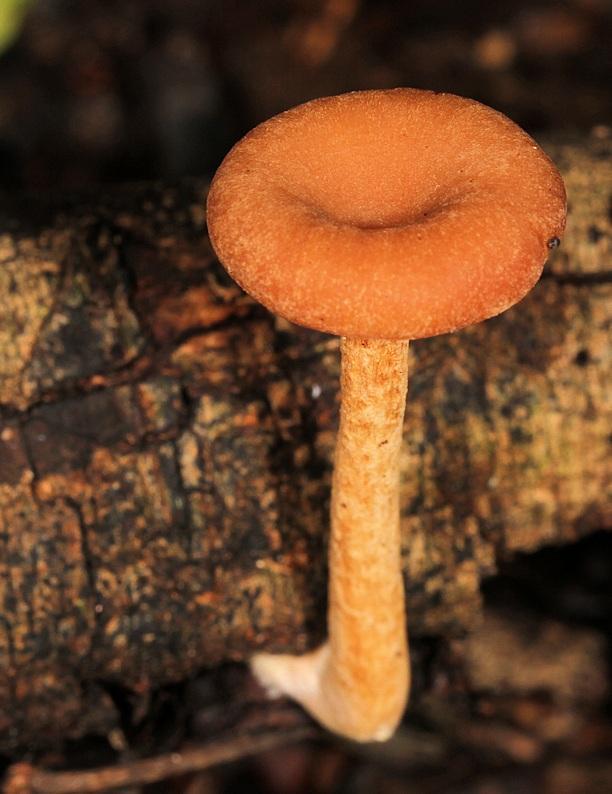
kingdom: Fungi
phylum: Basidiomycota
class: Agaricomycetes
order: Boletales
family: Hygrophoropsidaceae
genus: Hygrophoropsis
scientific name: Hygrophoropsis aurantiaca
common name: False chanterelle
